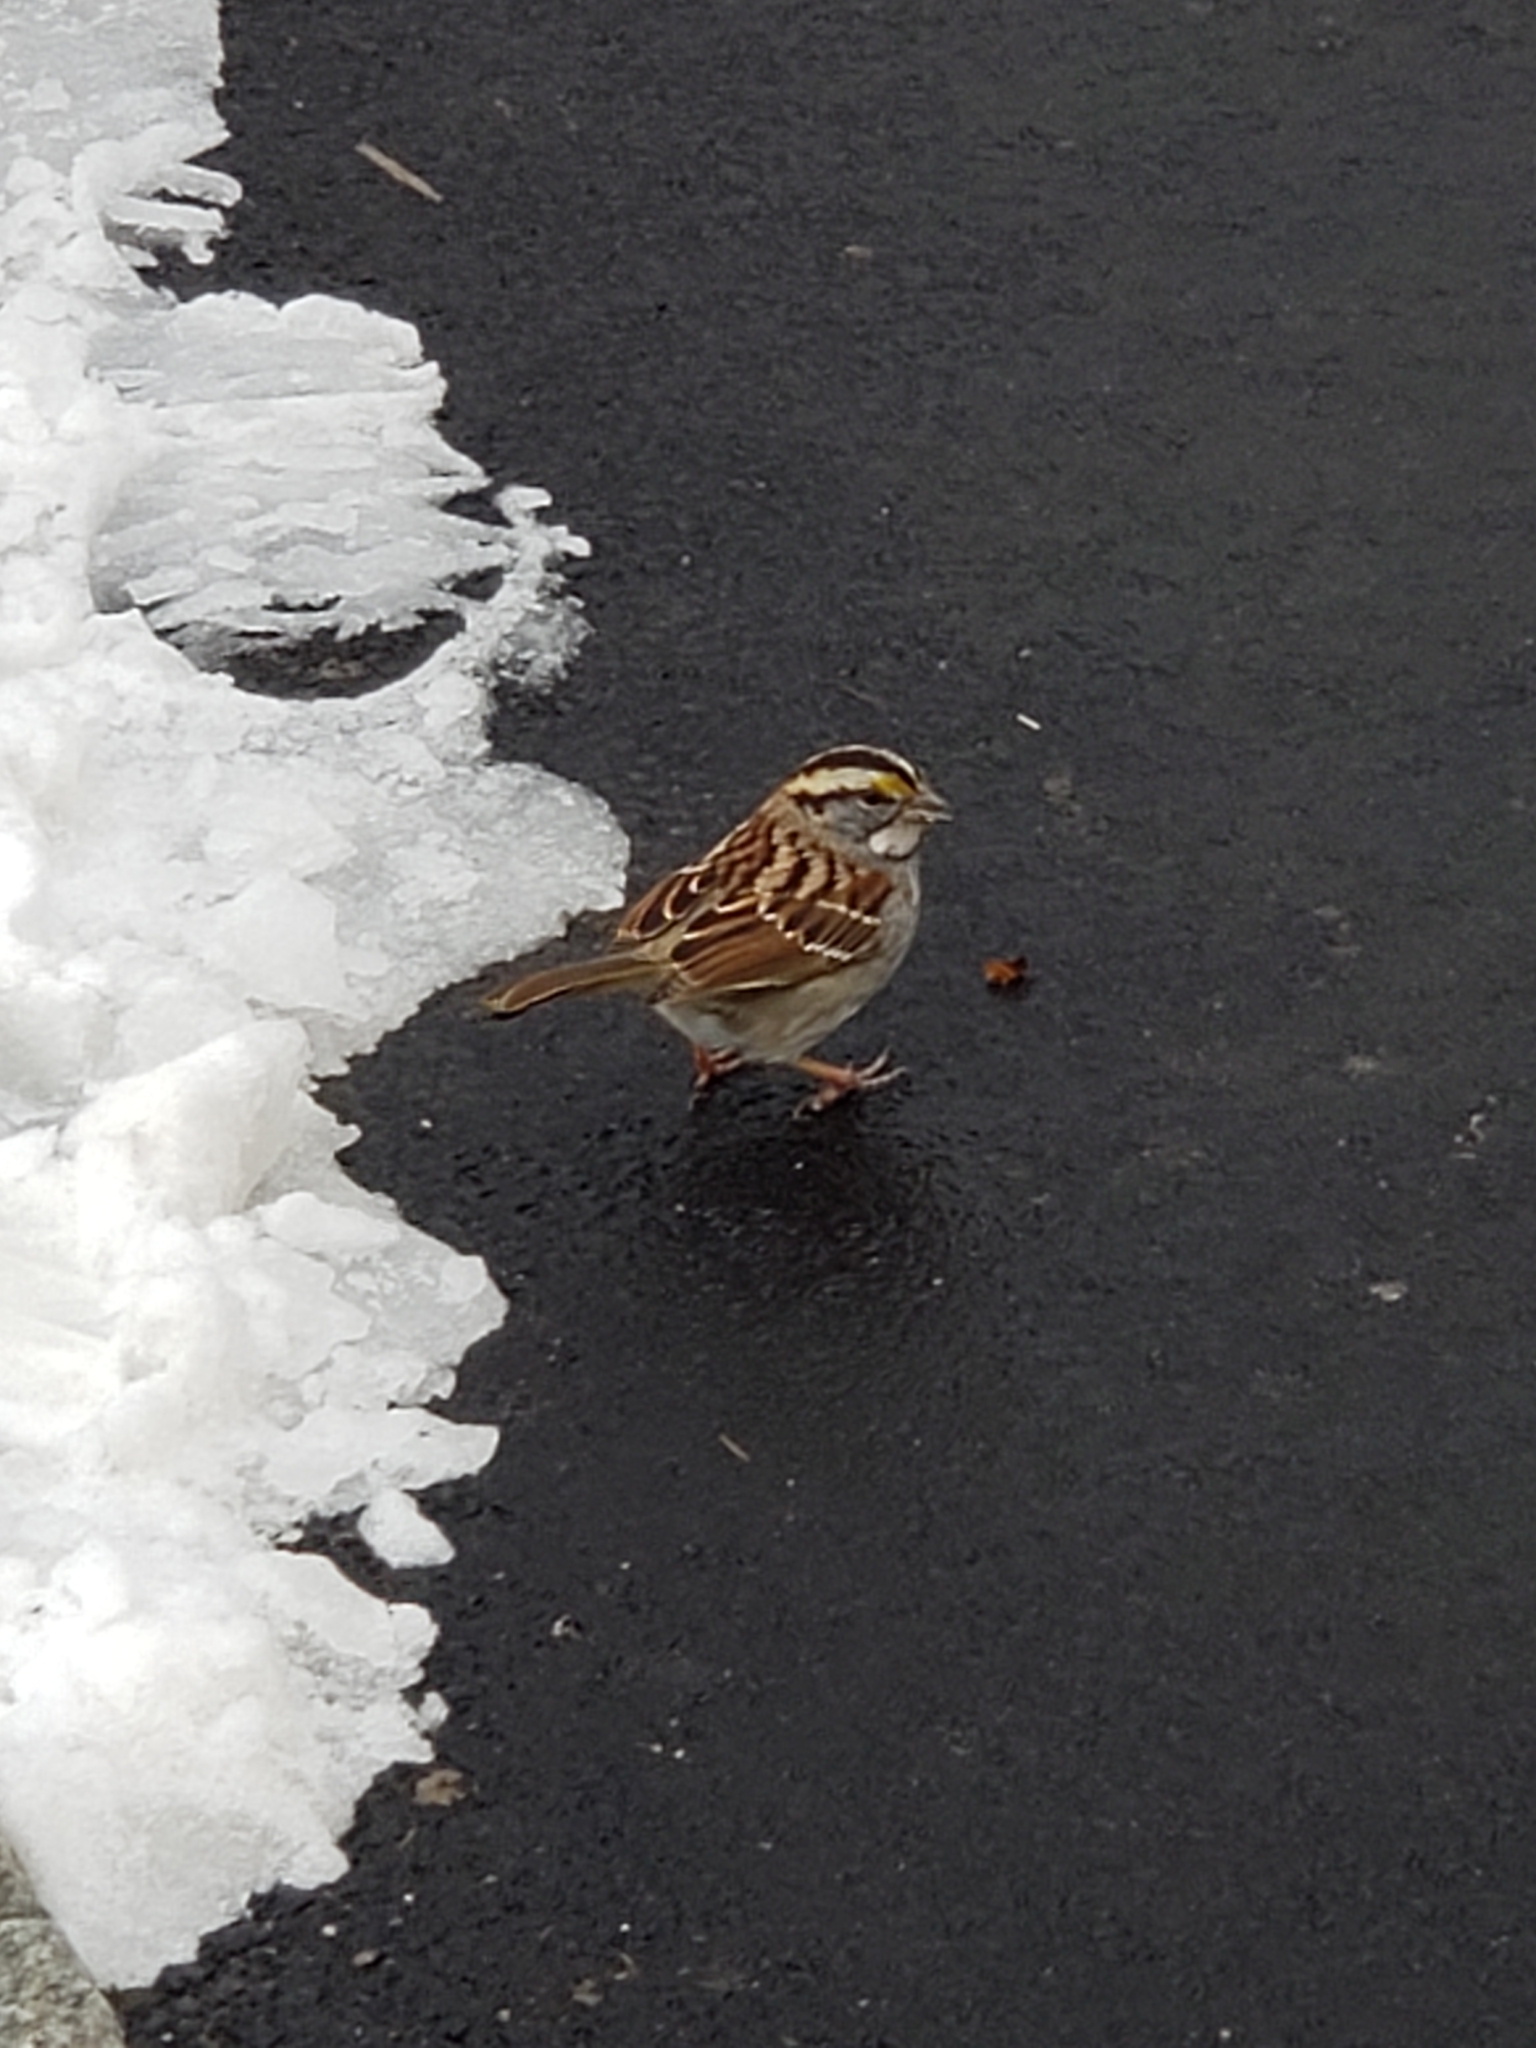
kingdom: Animalia
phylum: Chordata
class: Aves
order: Passeriformes
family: Passerellidae
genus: Zonotrichia
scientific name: Zonotrichia albicollis
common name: White-throated sparrow
